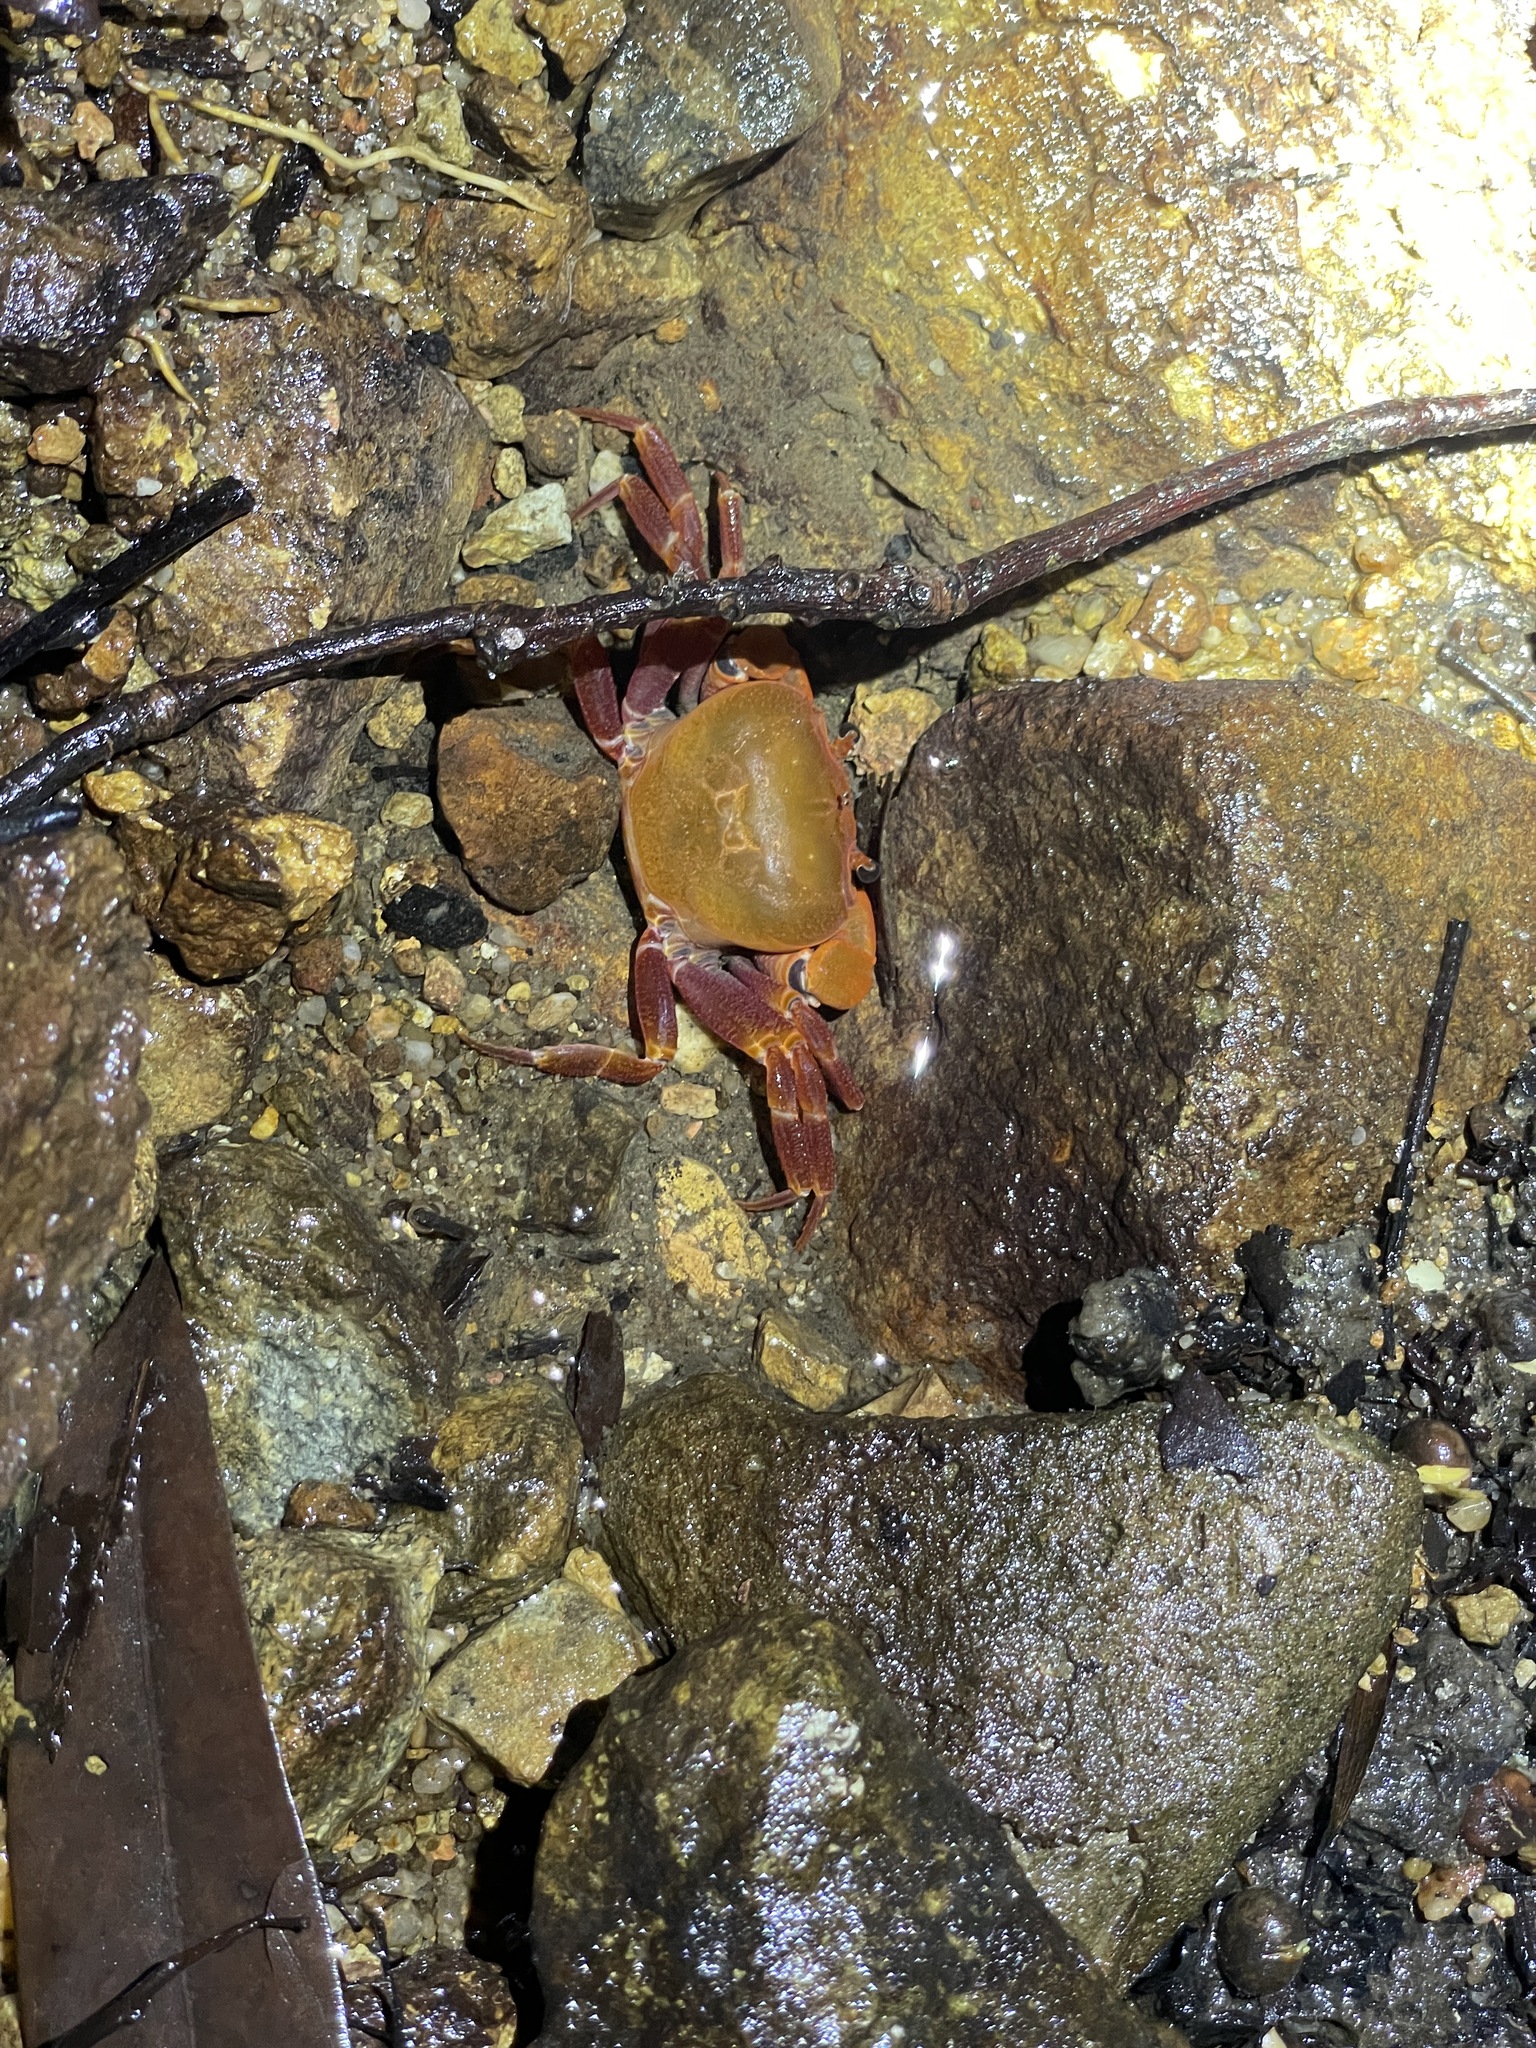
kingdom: Animalia
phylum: Arthropoda
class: Malacostraca
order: Decapoda
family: Potamidae
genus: Nanhaipotamon
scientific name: Nanhaipotamon hongkongense
